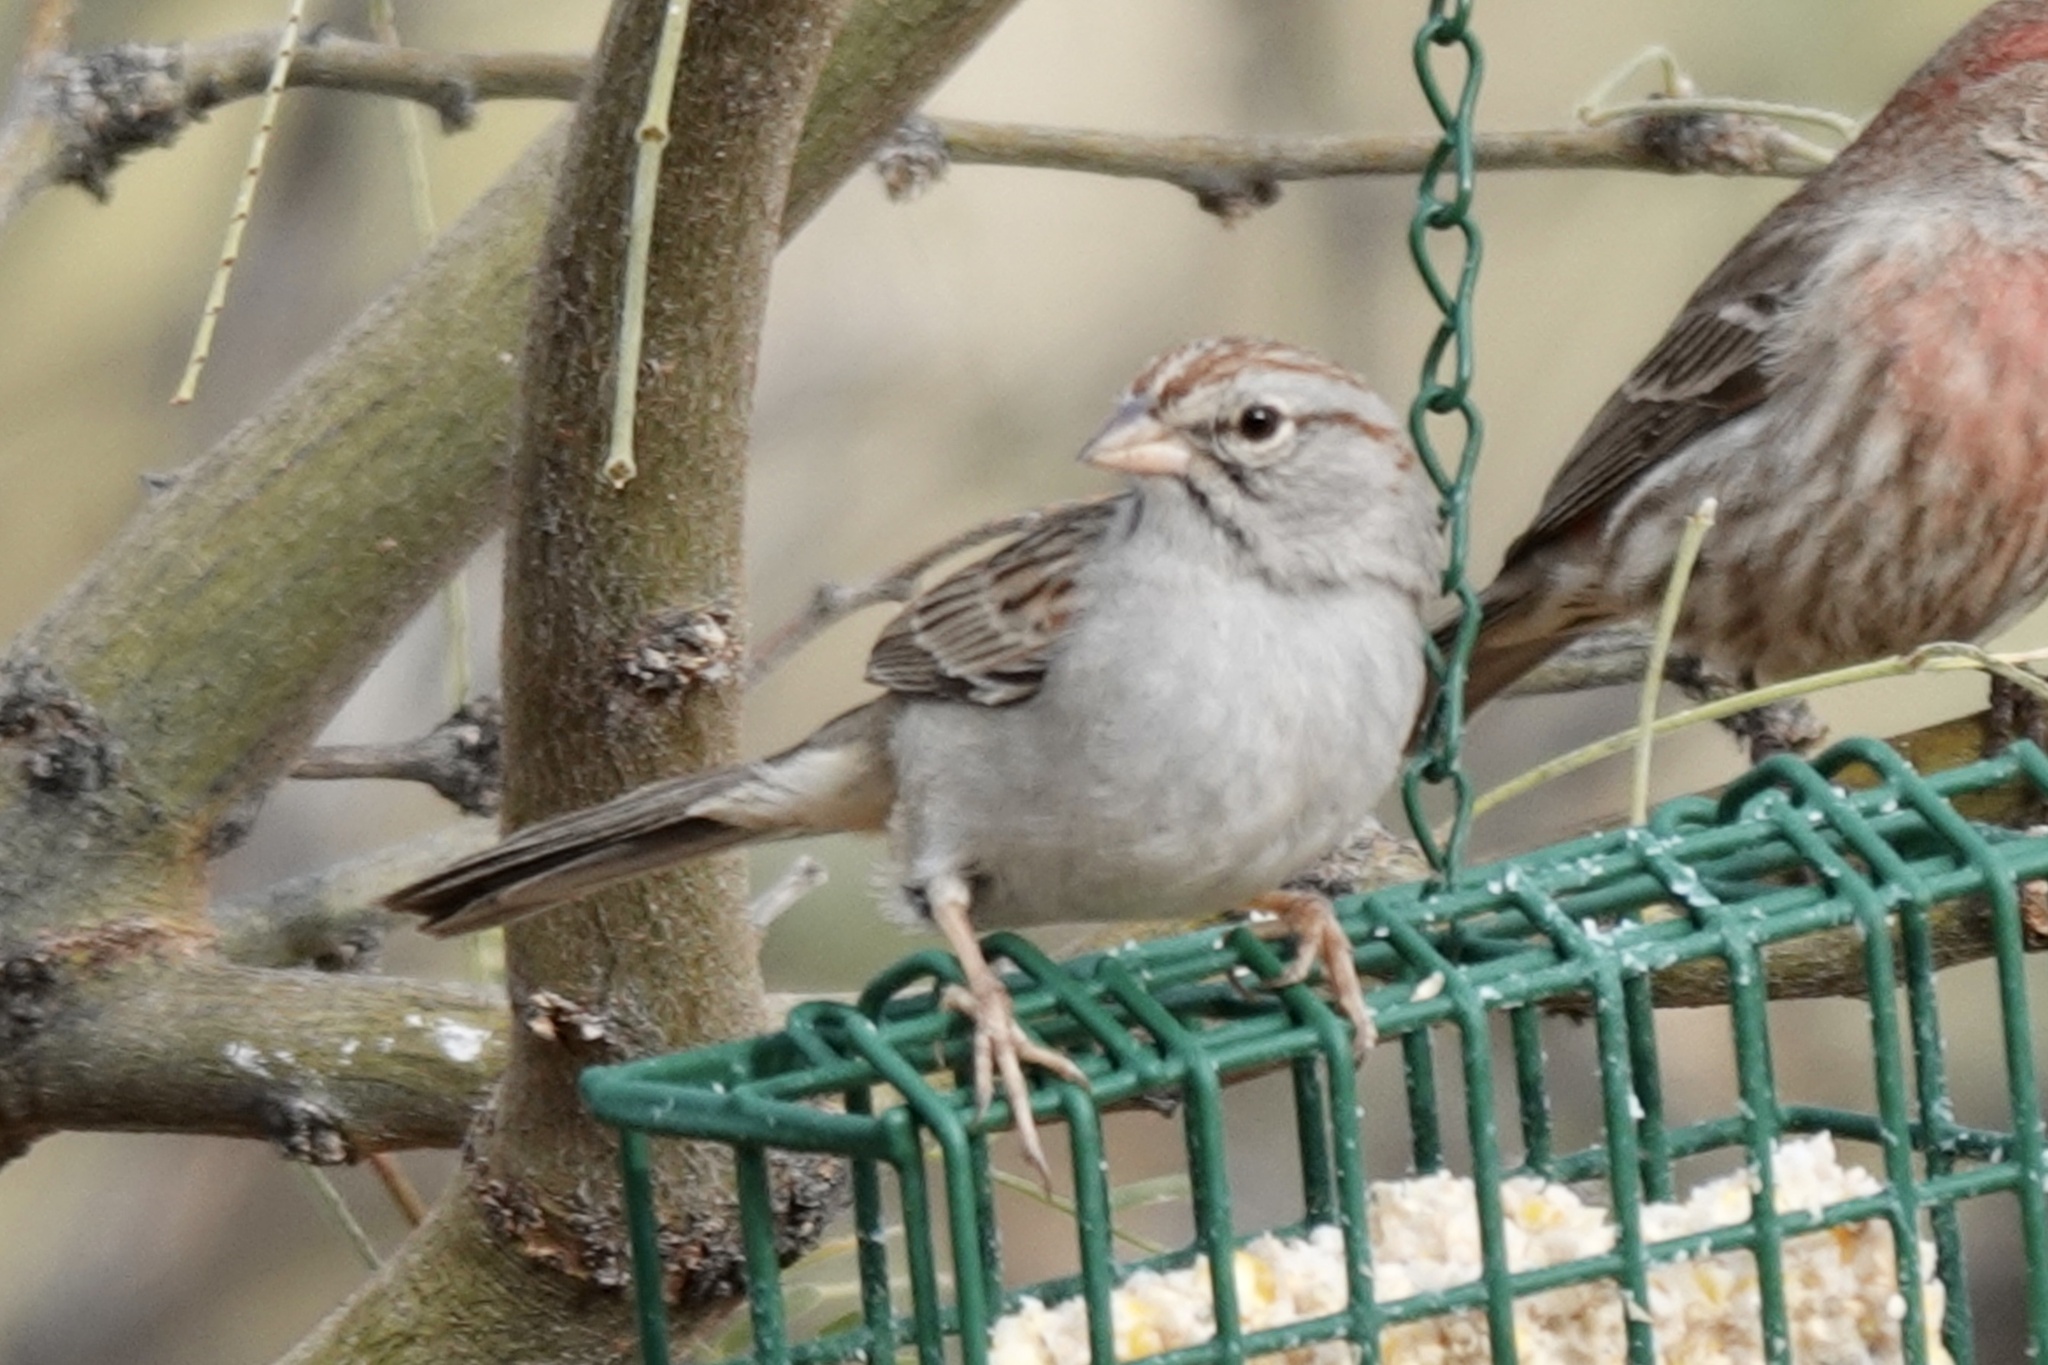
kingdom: Animalia
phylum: Chordata
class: Aves
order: Passeriformes
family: Passerellidae
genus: Peucaea
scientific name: Peucaea carpalis
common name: Rufous-winged sparrow
